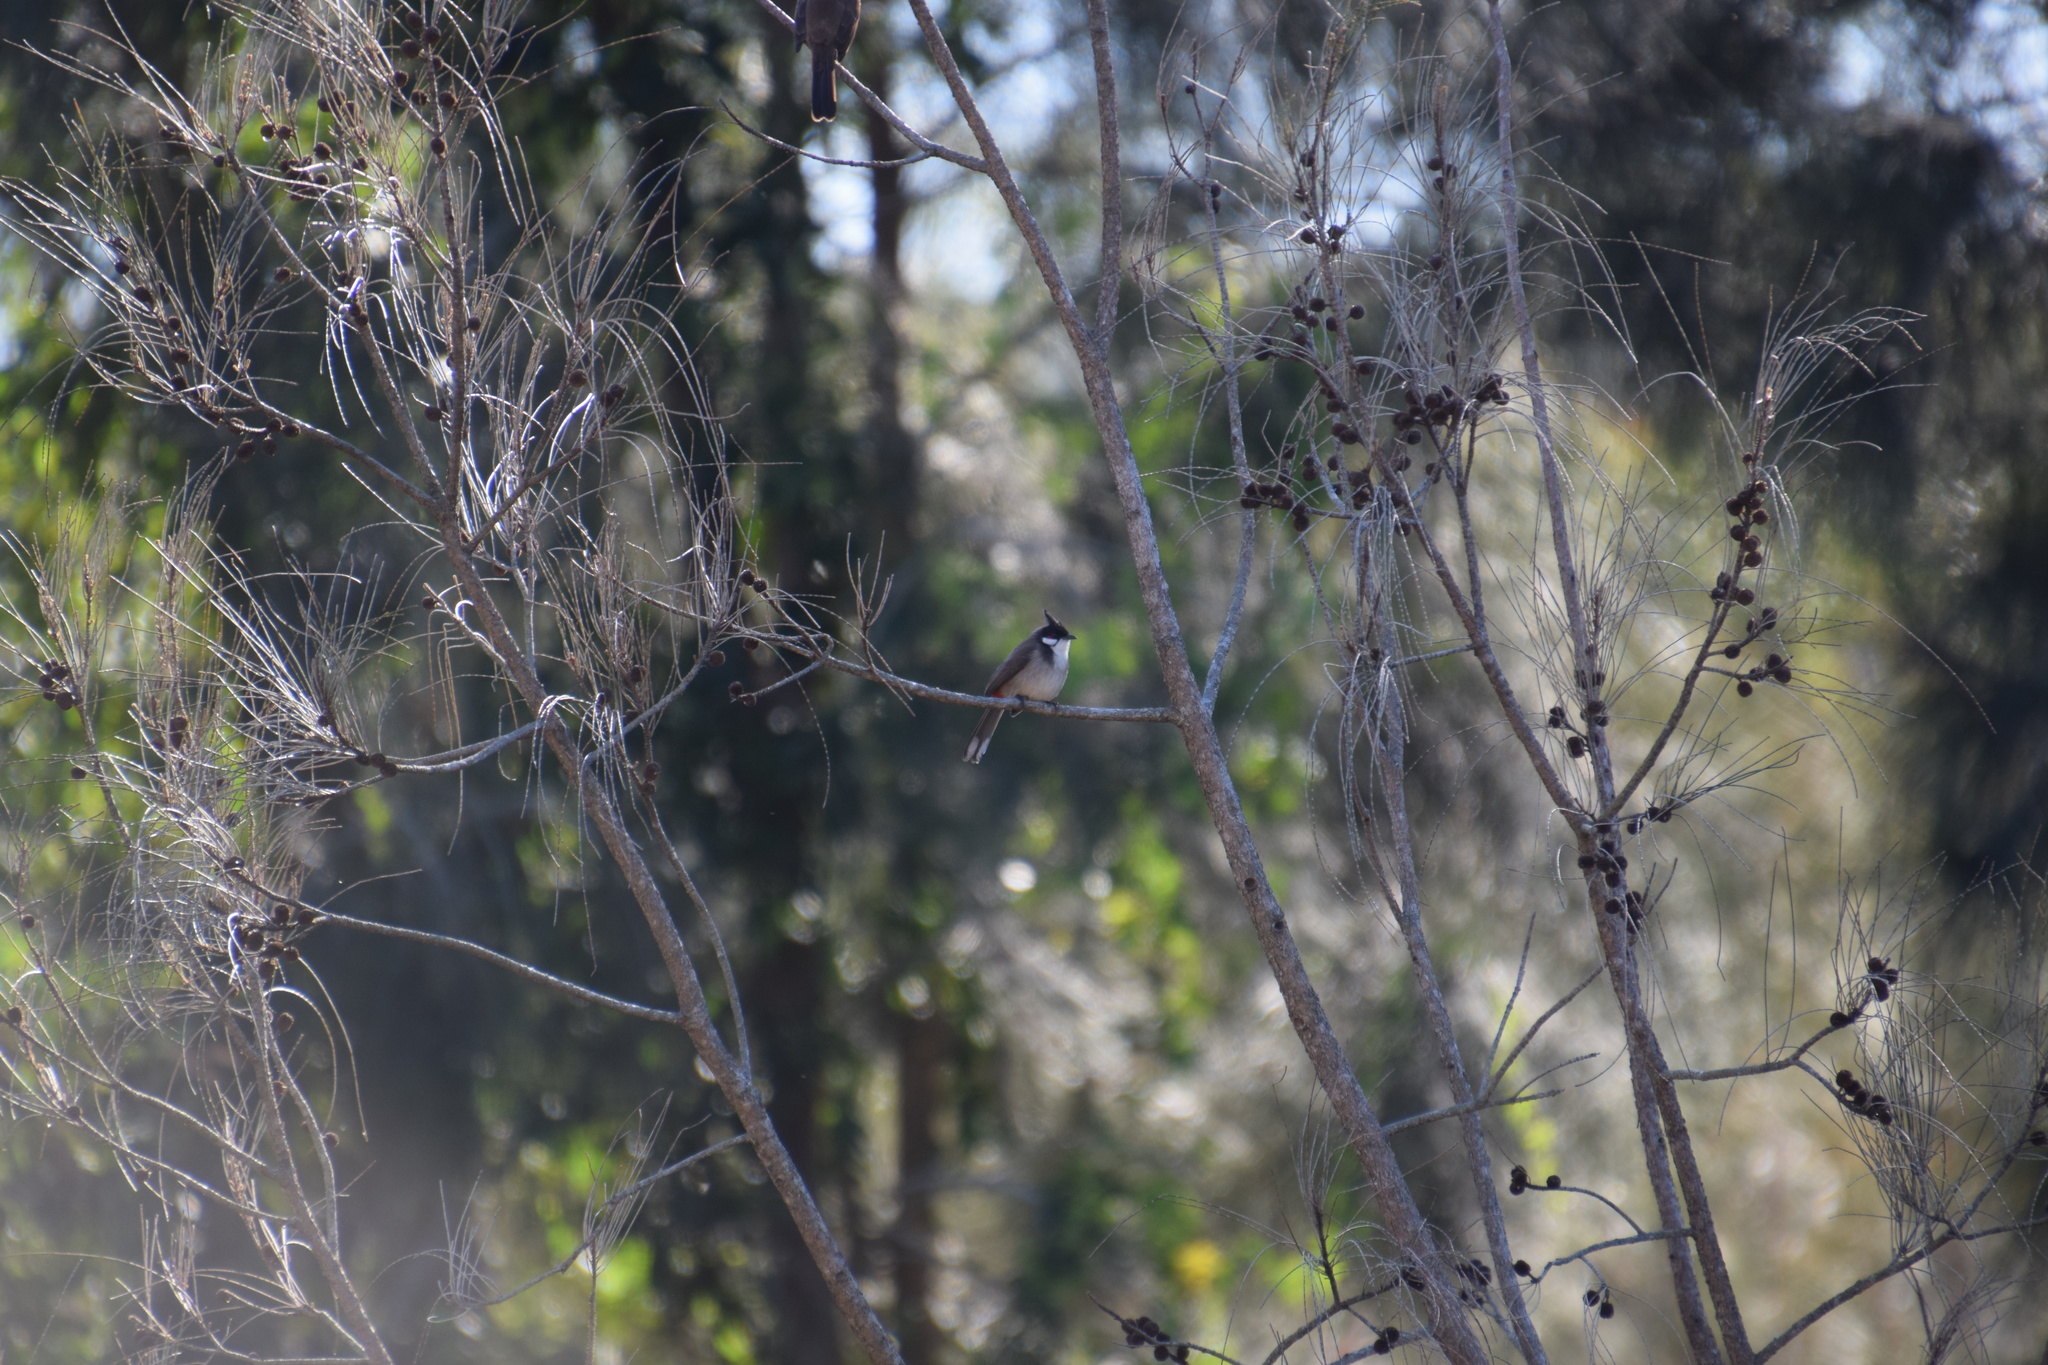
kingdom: Animalia
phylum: Chordata
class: Aves
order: Passeriformes
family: Pycnonotidae
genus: Pycnonotus
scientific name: Pycnonotus jocosus
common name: Red-whiskered bulbul
